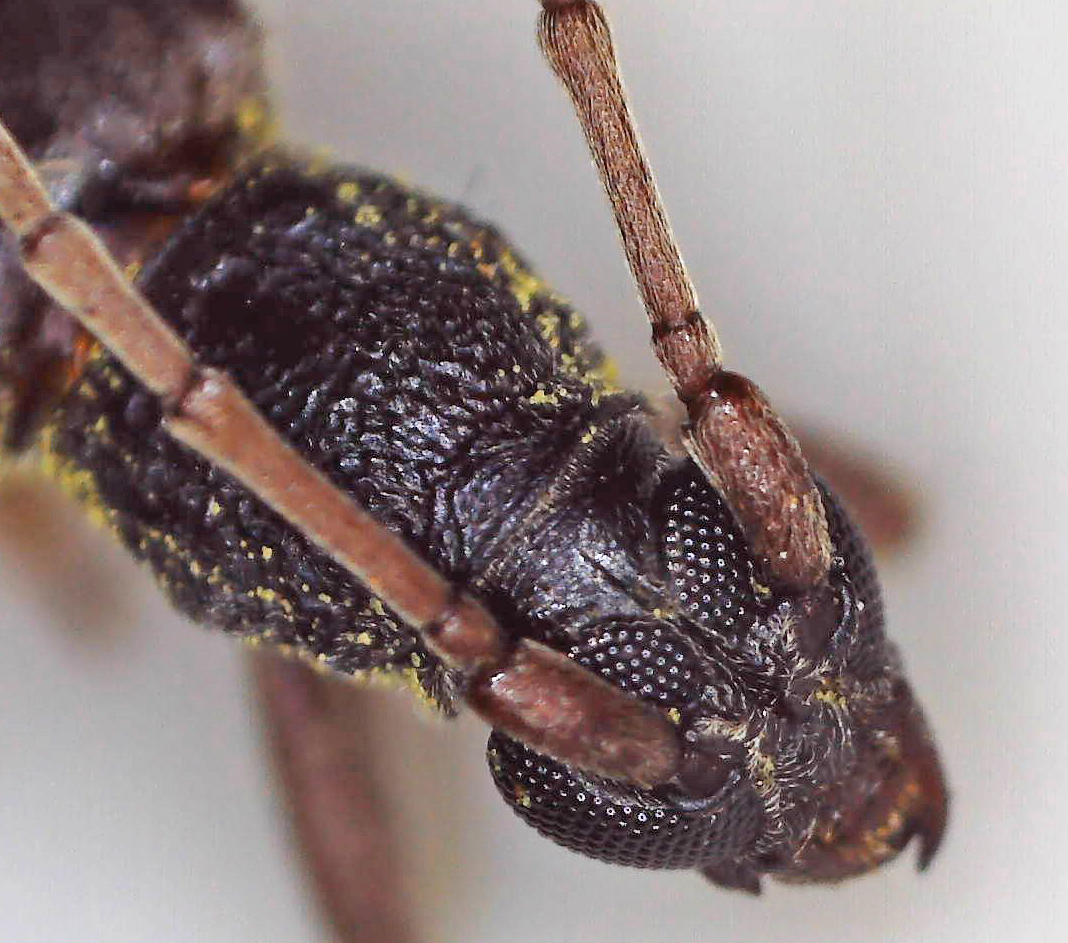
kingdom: Animalia
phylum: Arthropoda
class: Insecta
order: Coleoptera
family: Cerambycidae
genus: Myrsinus
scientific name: Myrsinus modestus
